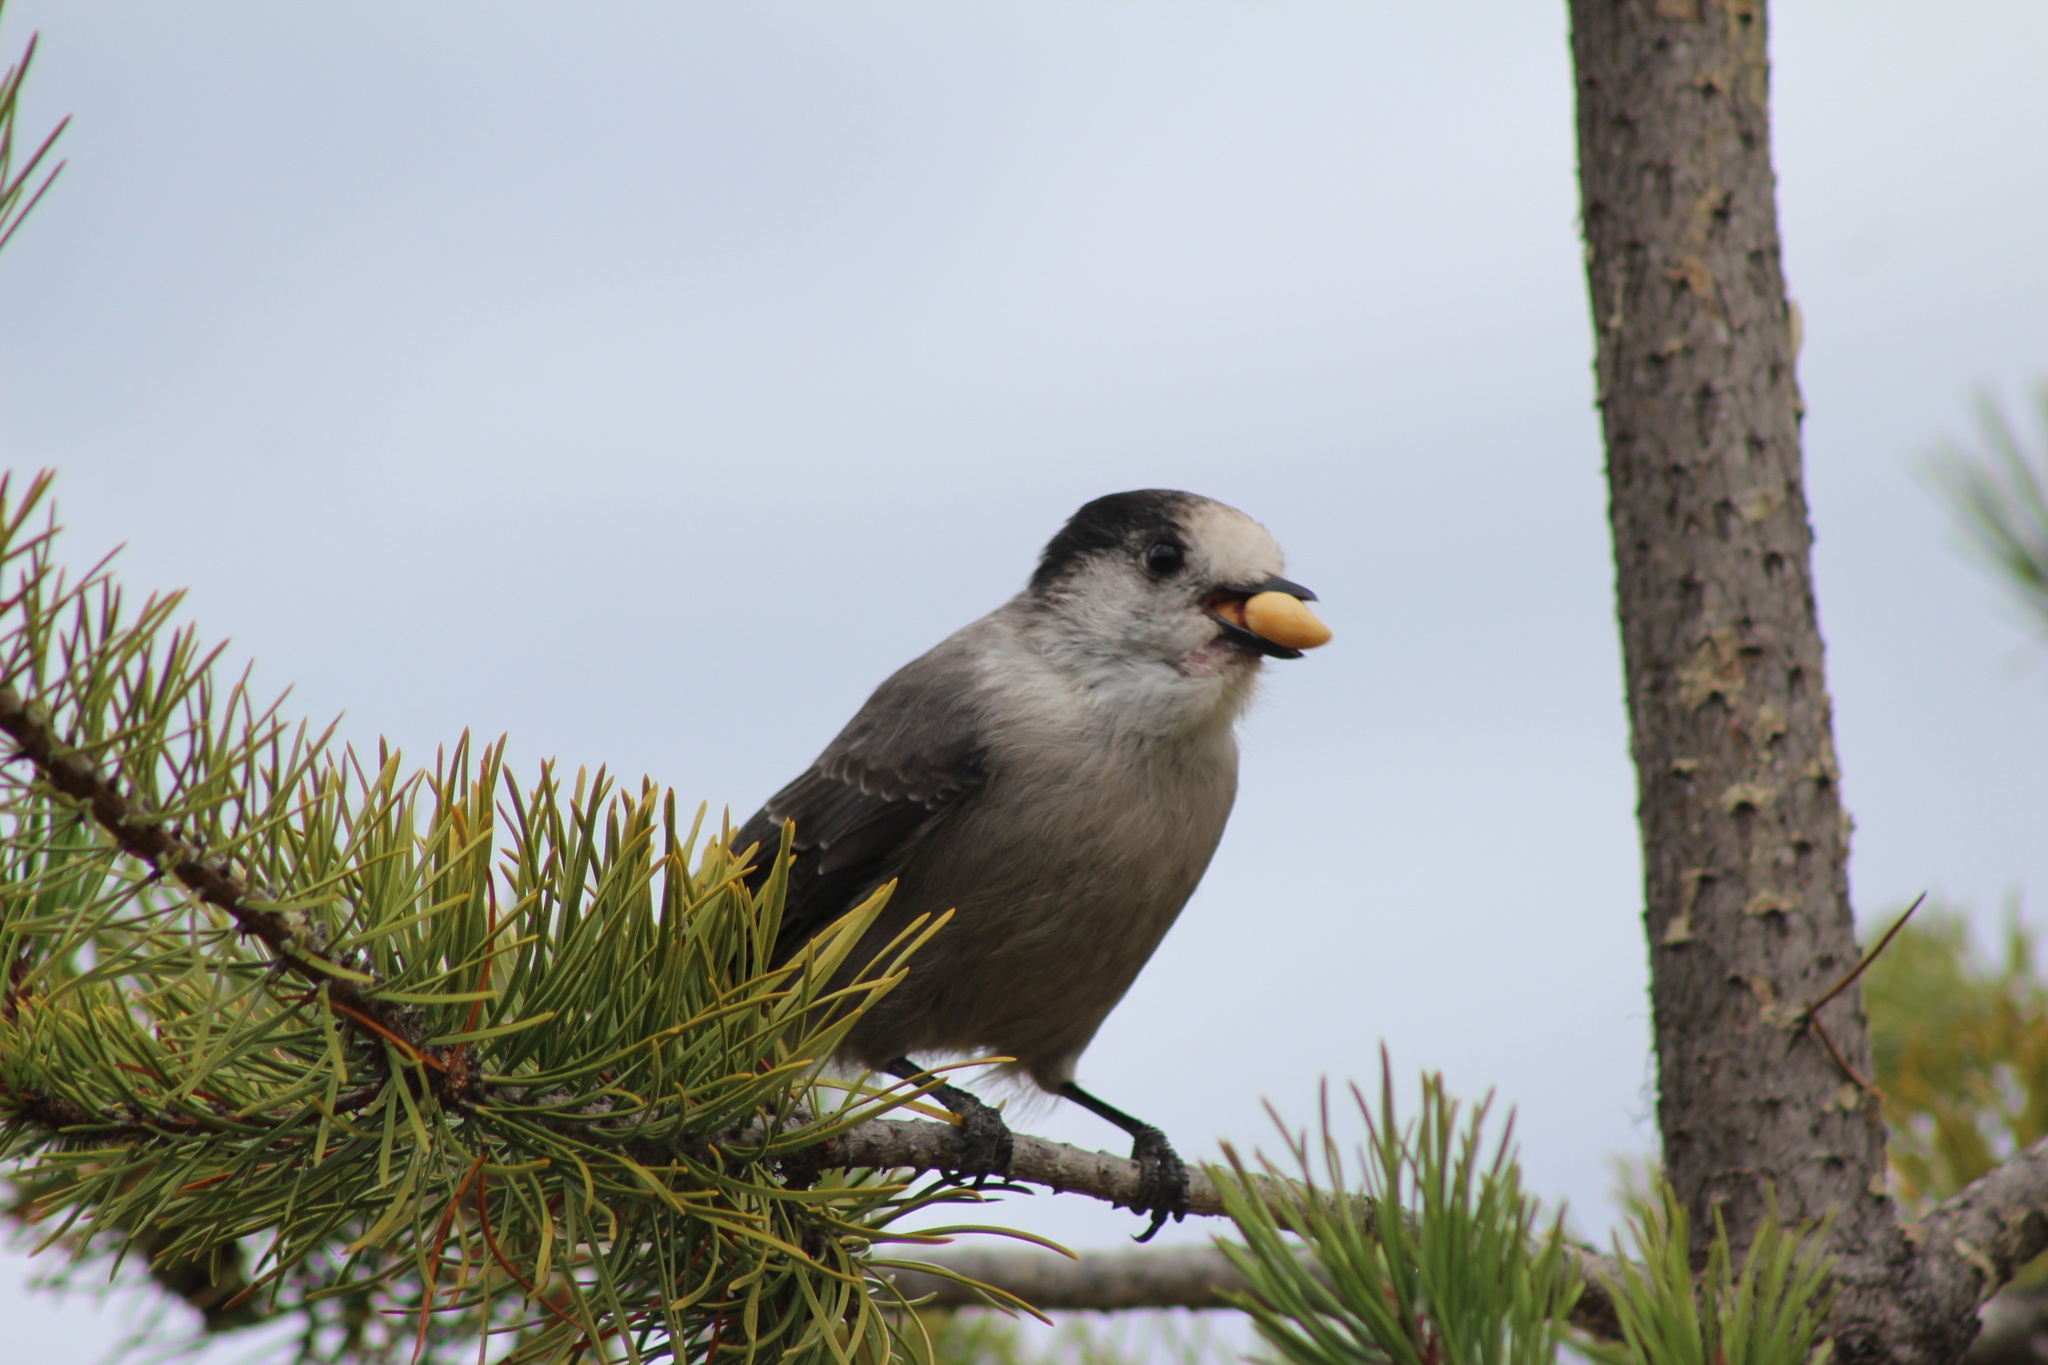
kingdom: Animalia
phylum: Chordata
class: Aves
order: Passeriformes
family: Corvidae
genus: Perisoreus
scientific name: Perisoreus canadensis
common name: Gray jay
